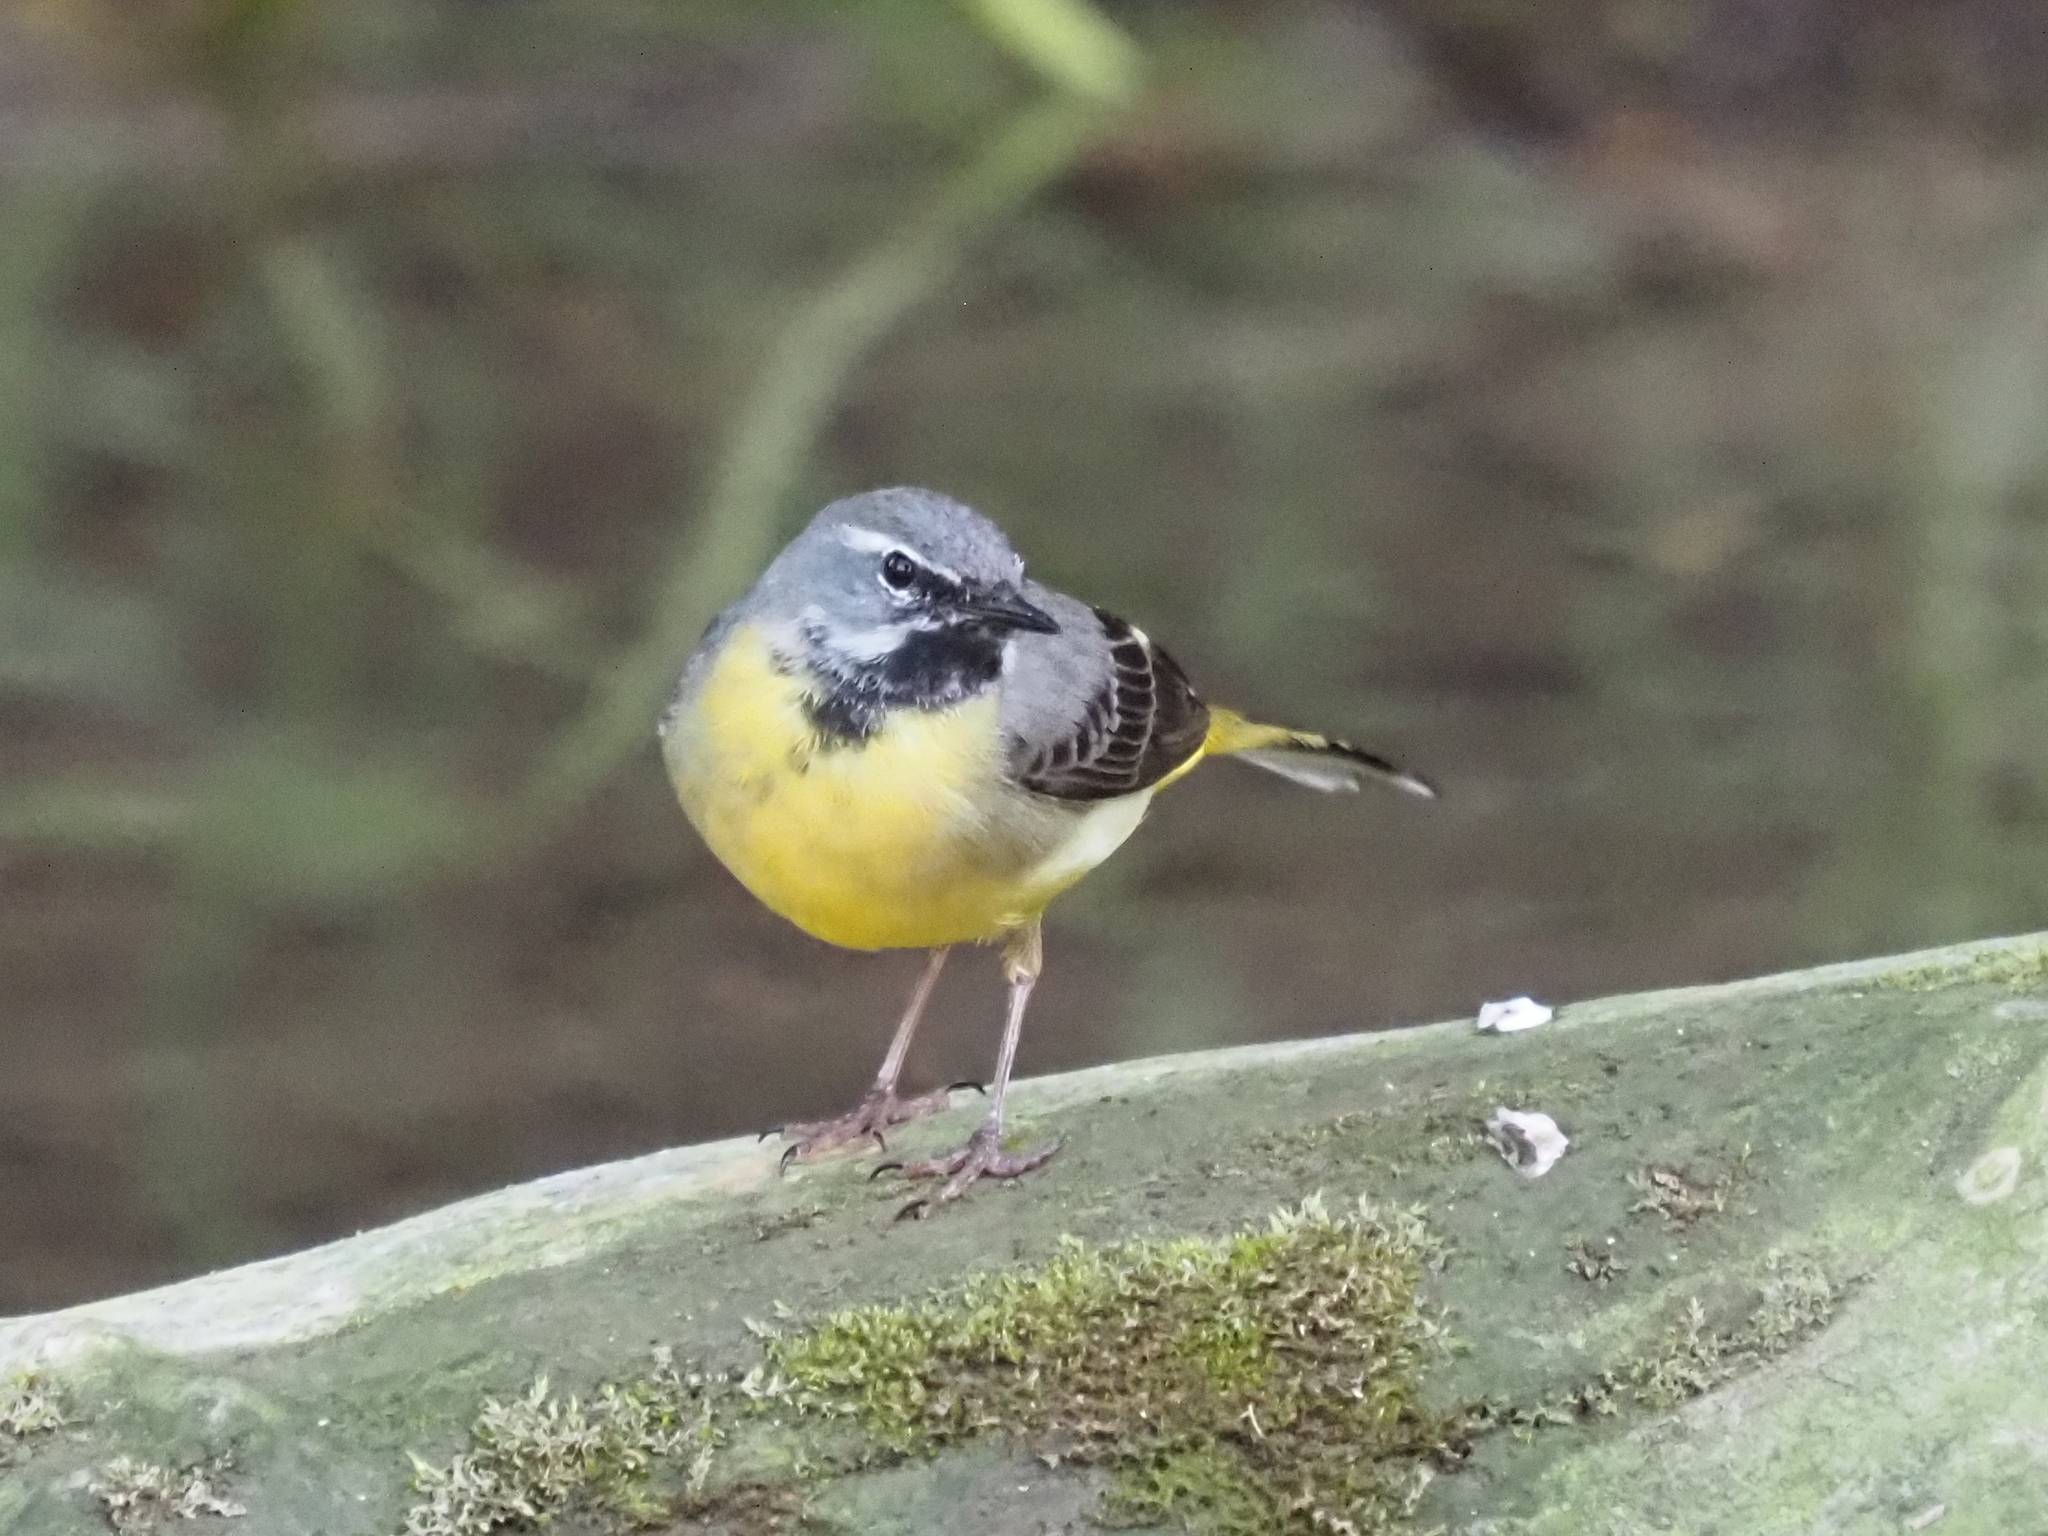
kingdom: Animalia
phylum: Chordata
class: Aves
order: Passeriformes
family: Motacillidae
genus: Motacilla
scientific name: Motacilla cinerea
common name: Grey wagtail
